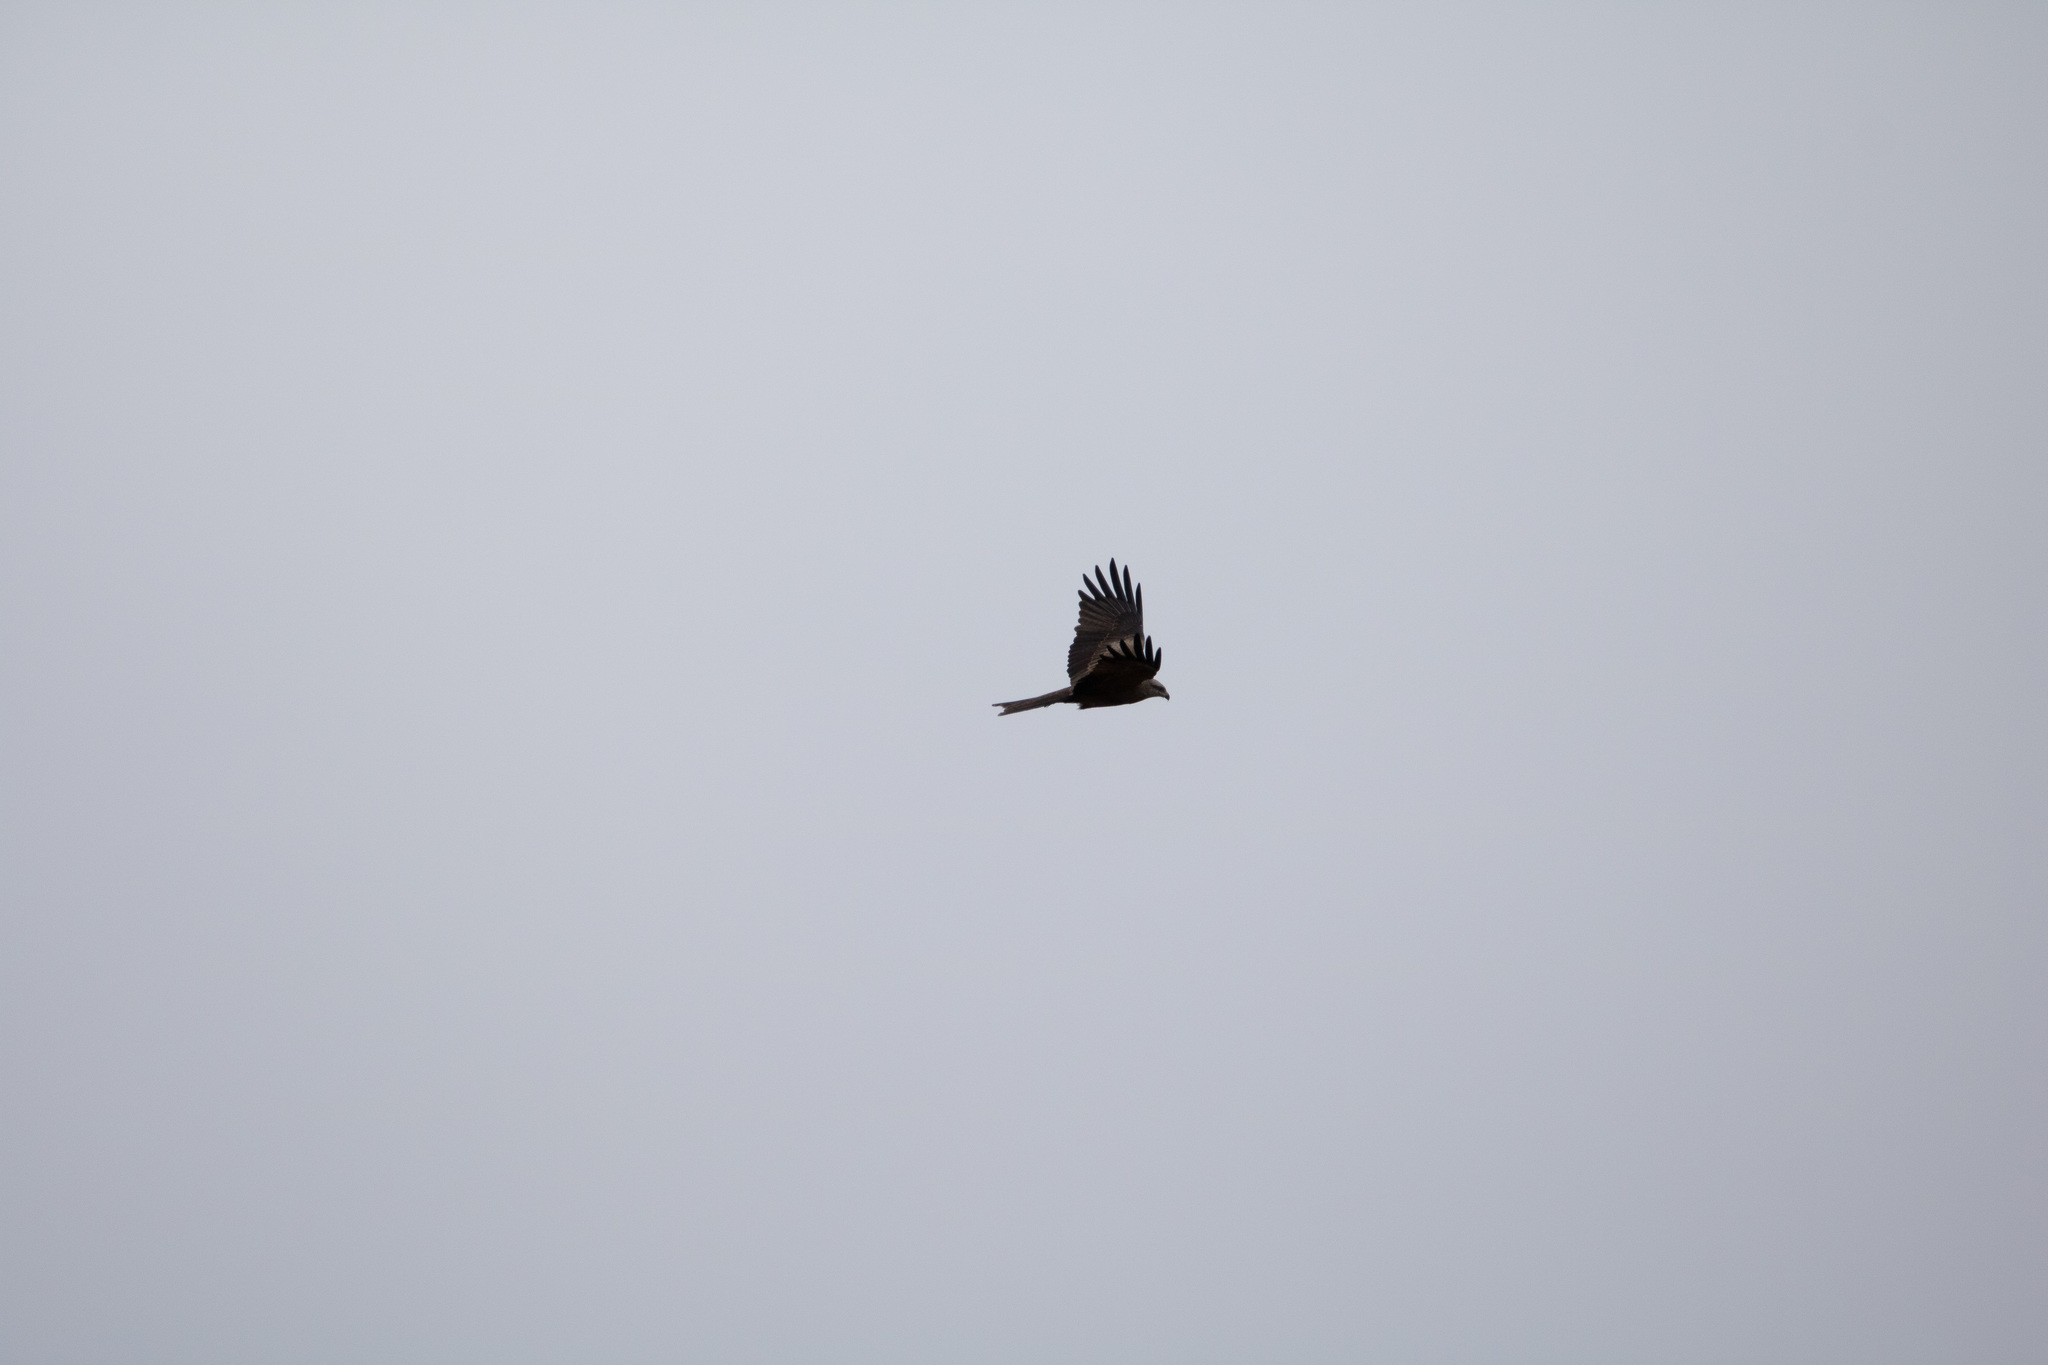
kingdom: Animalia
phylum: Chordata
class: Aves
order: Accipitriformes
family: Accipitridae
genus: Milvus
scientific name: Milvus migrans
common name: Black kite
